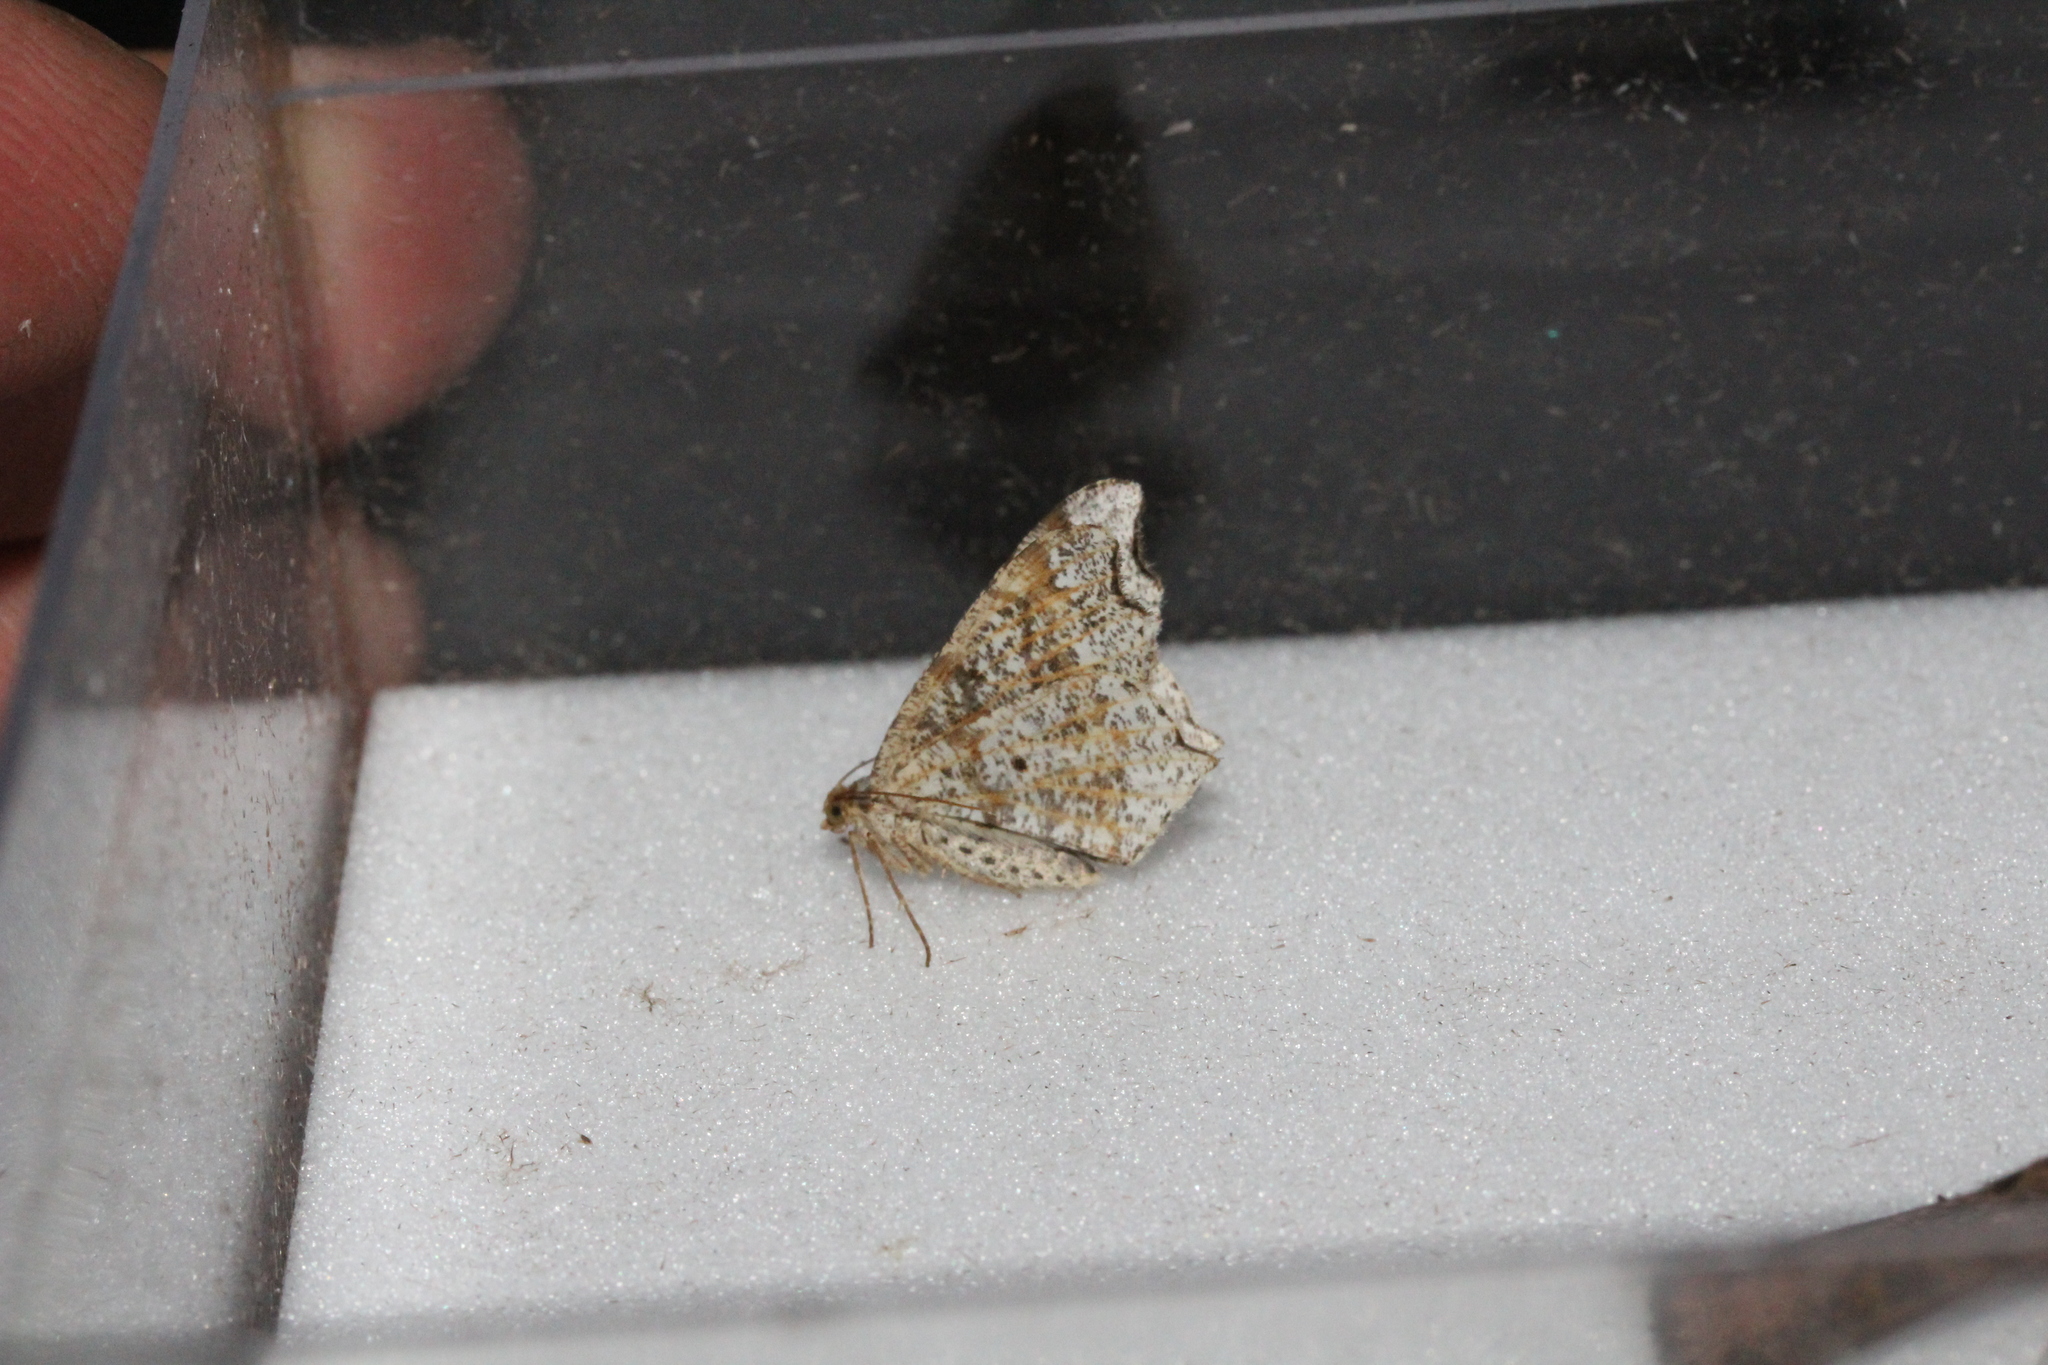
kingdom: Animalia
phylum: Arthropoda
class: Insecta
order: Lepidoptera
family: Geometridae
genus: Macaria
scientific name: Macaria alternata
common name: Sharp-angled peacock
